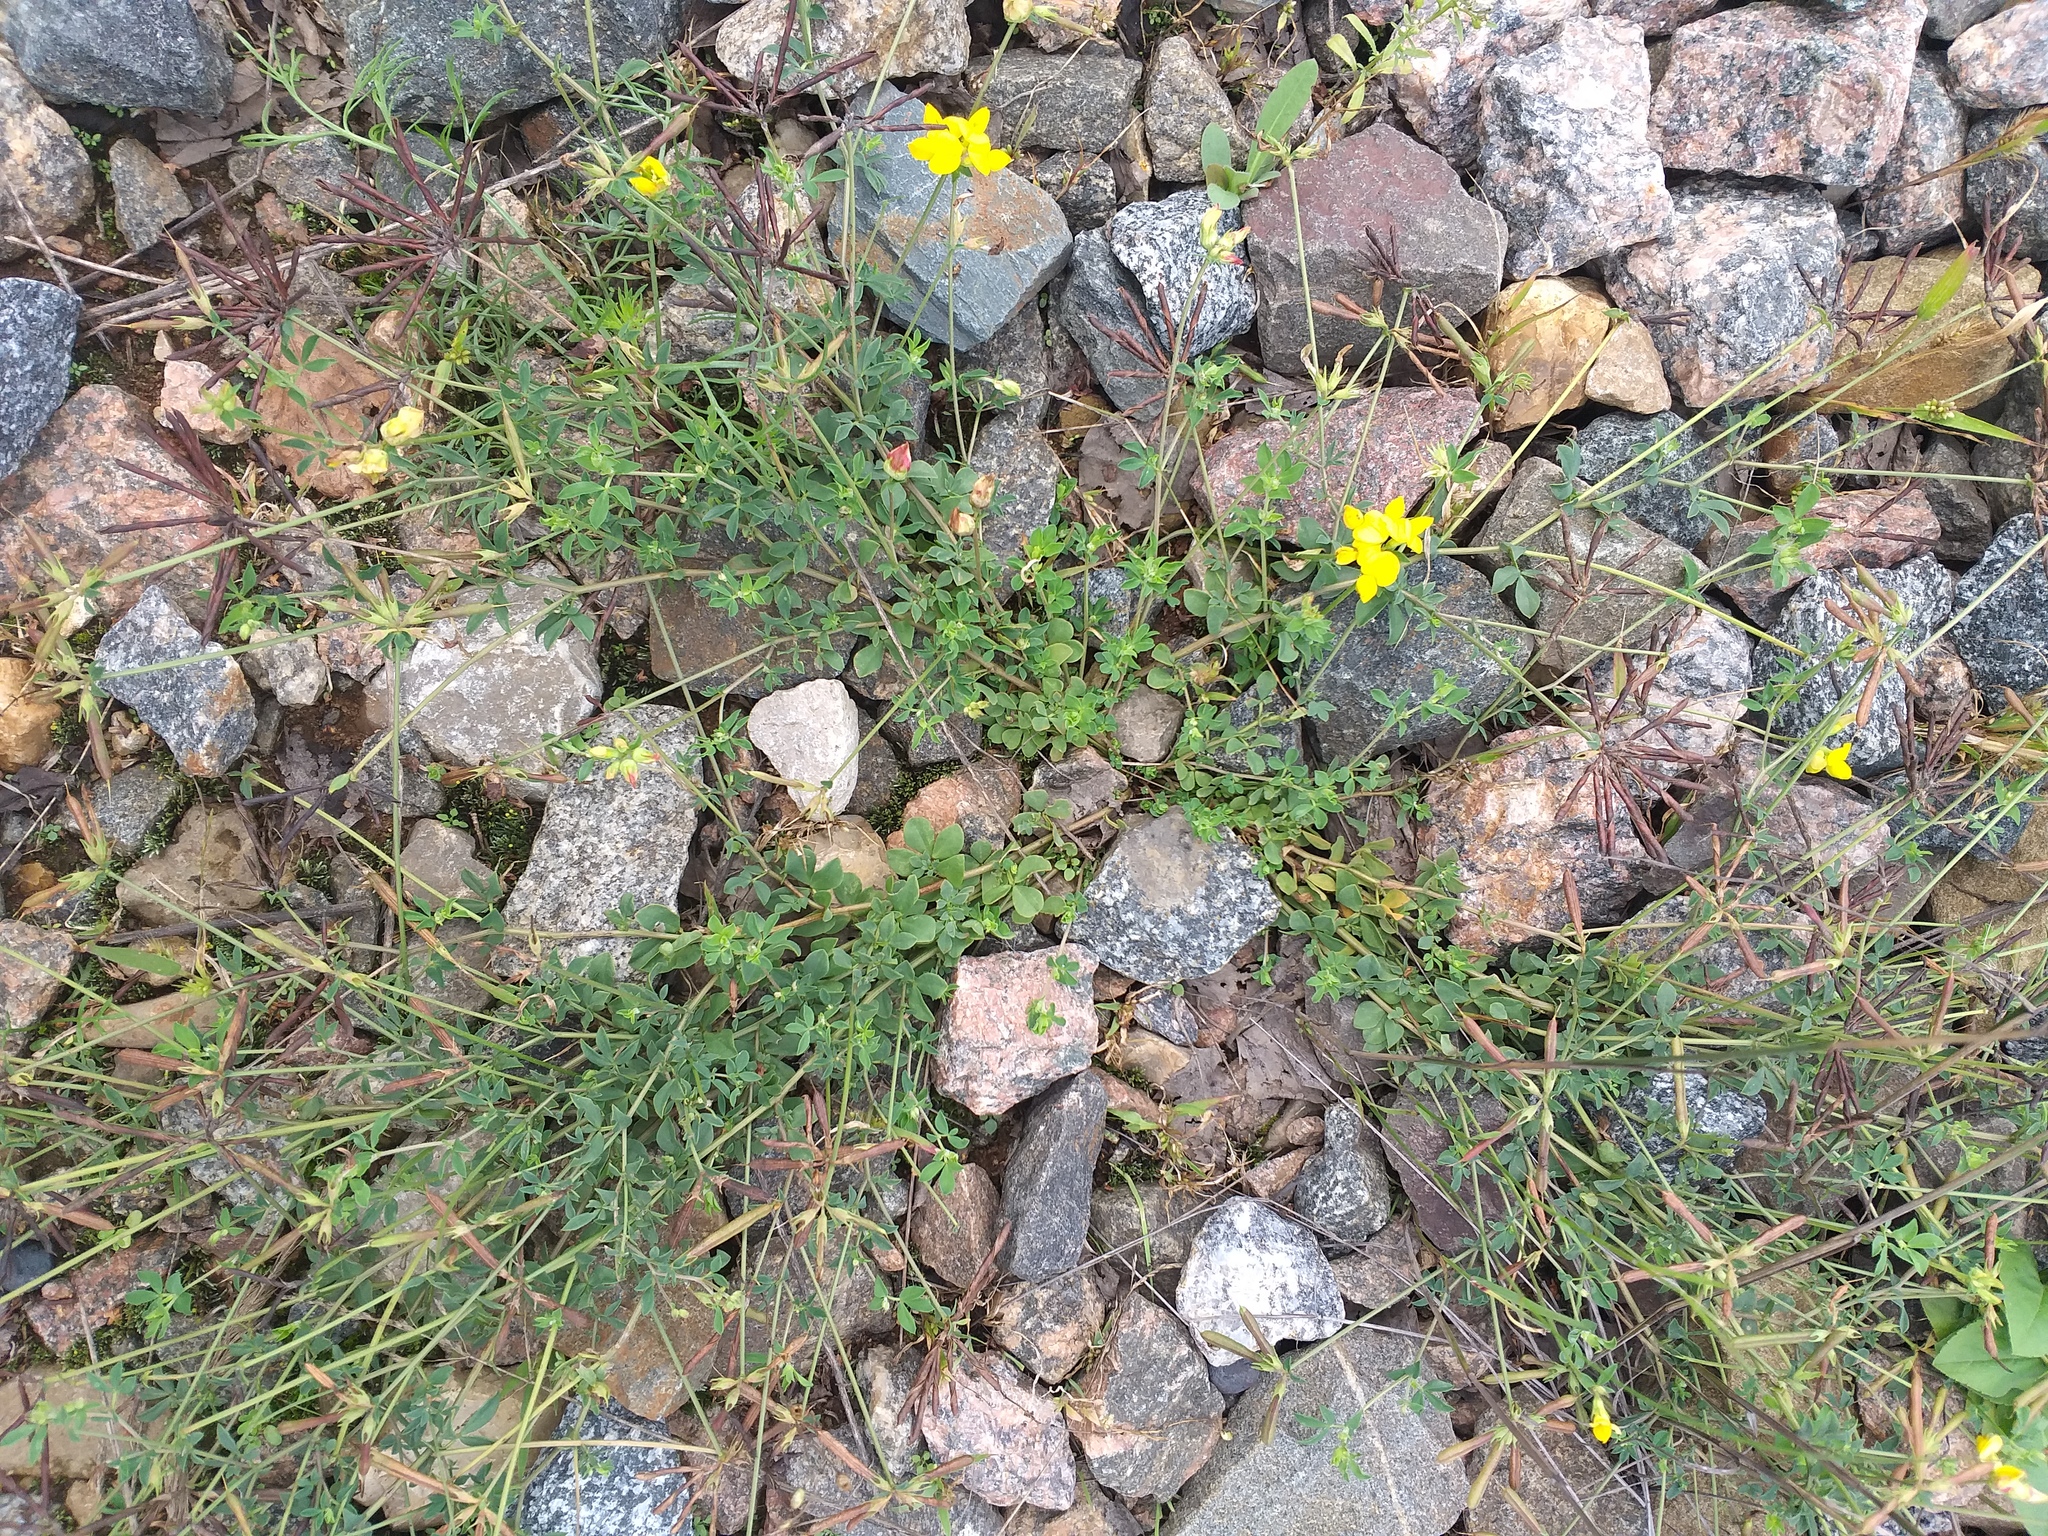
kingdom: Plantae
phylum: Tracheophyta
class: Magnoliopsida
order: Fabales
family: Fabaceae
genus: Lotus
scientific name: Lotus corniculatus
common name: Common bird's-foot-trefoil
